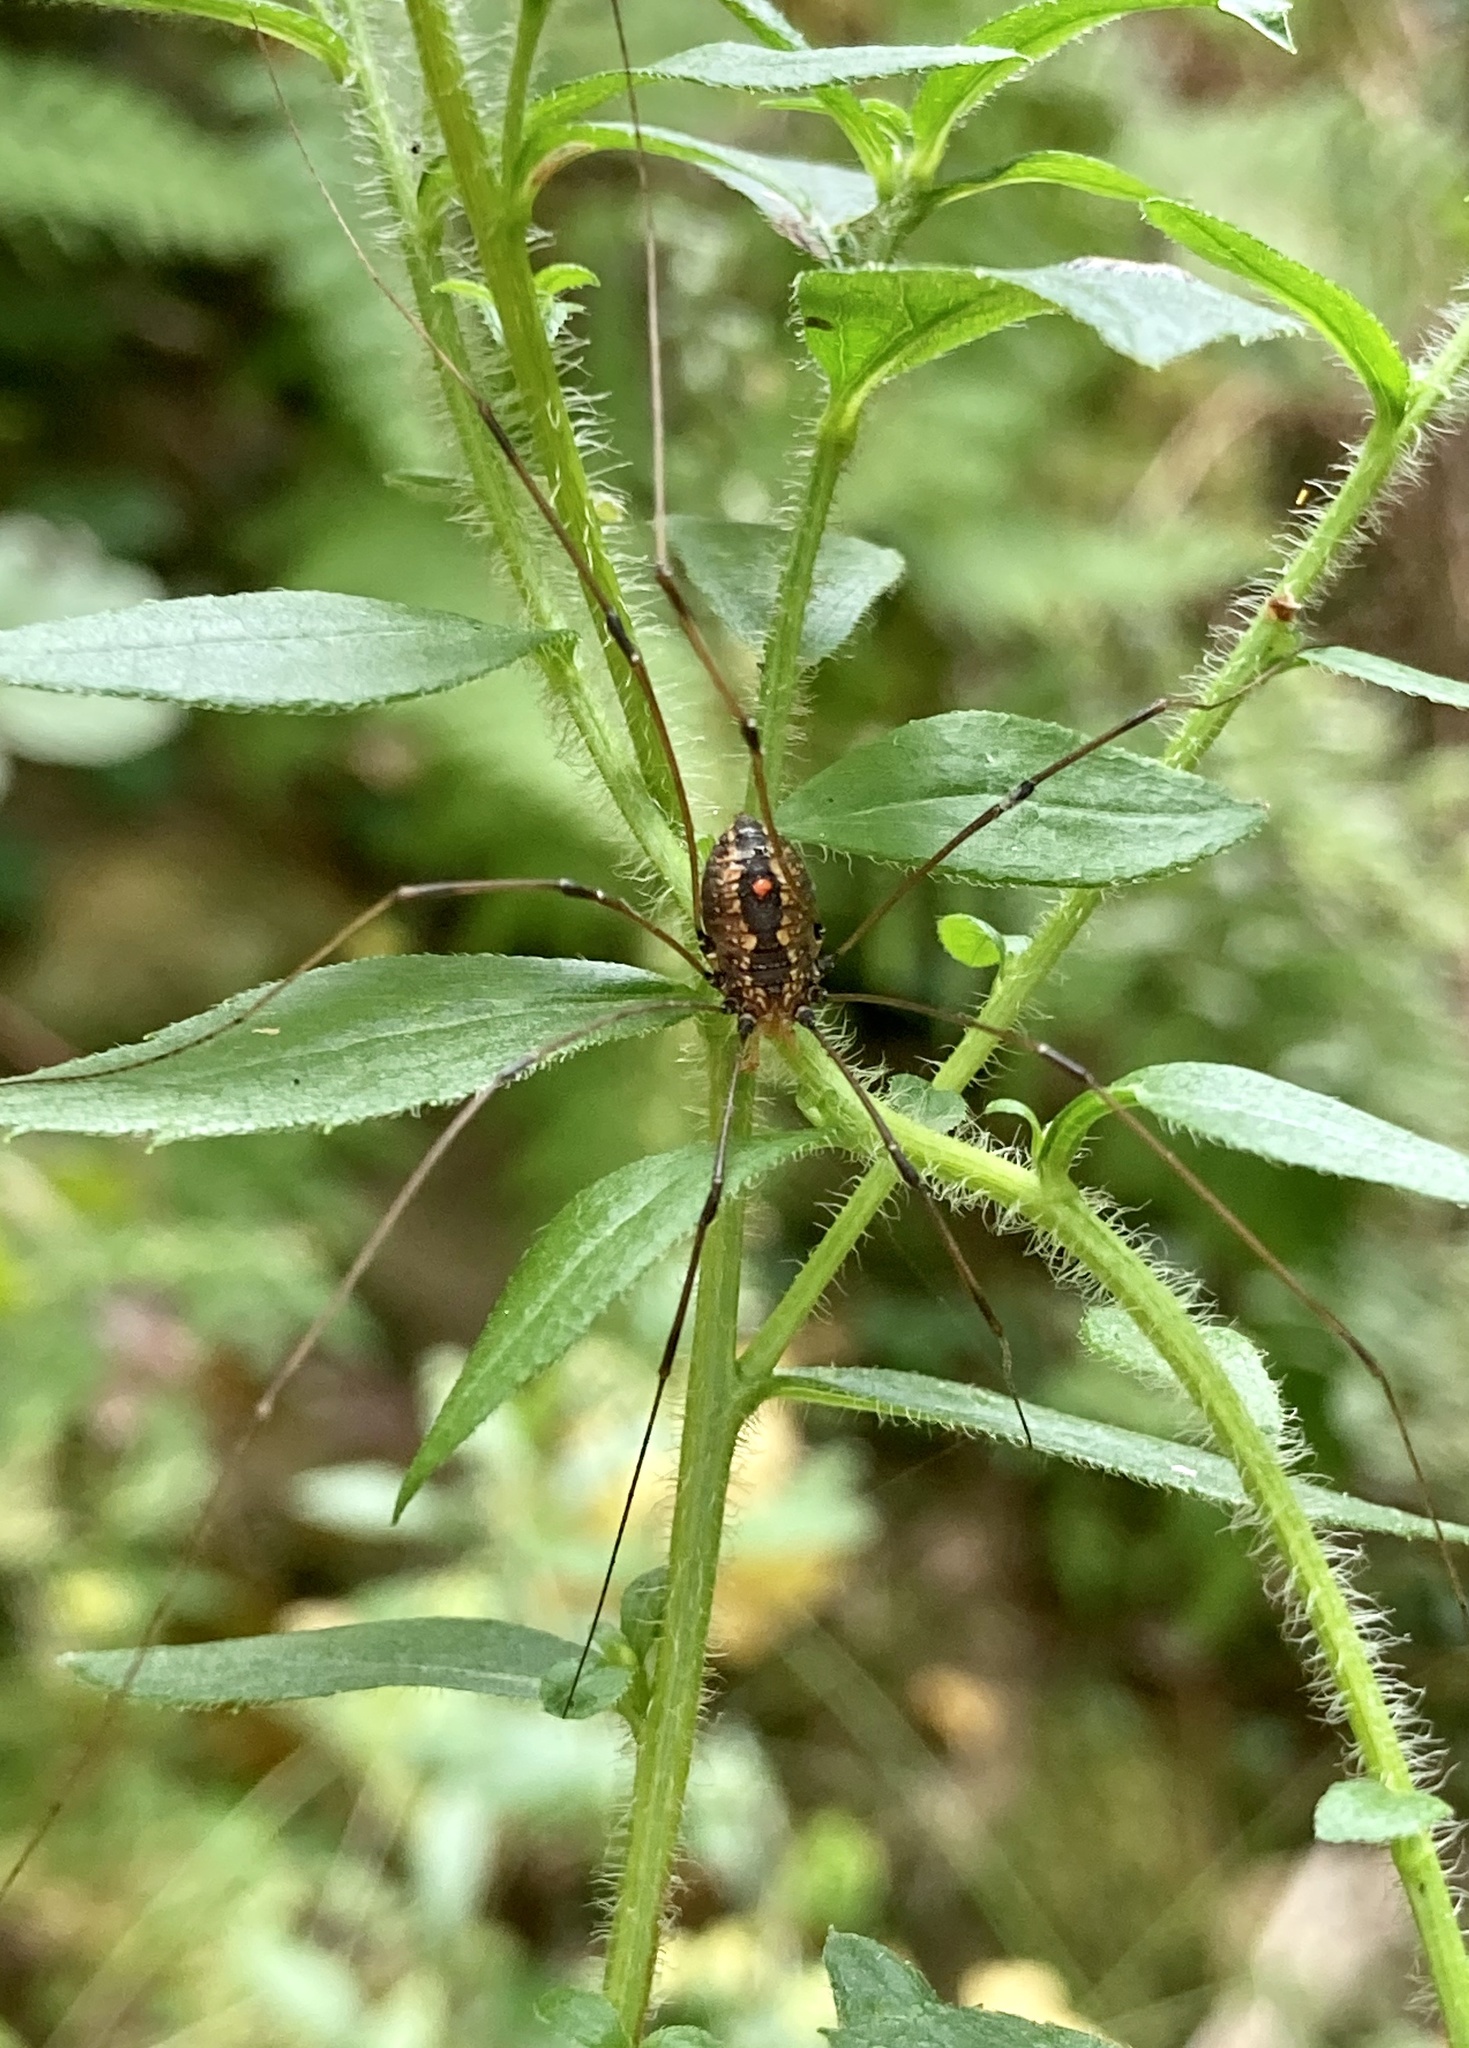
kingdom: Animalia
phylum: Arthropoda
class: Arachnida
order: Opiliones
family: Sclerosomatidae
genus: Leiobunum
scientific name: Leiobunum vittatum
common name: Eastern harvestman
